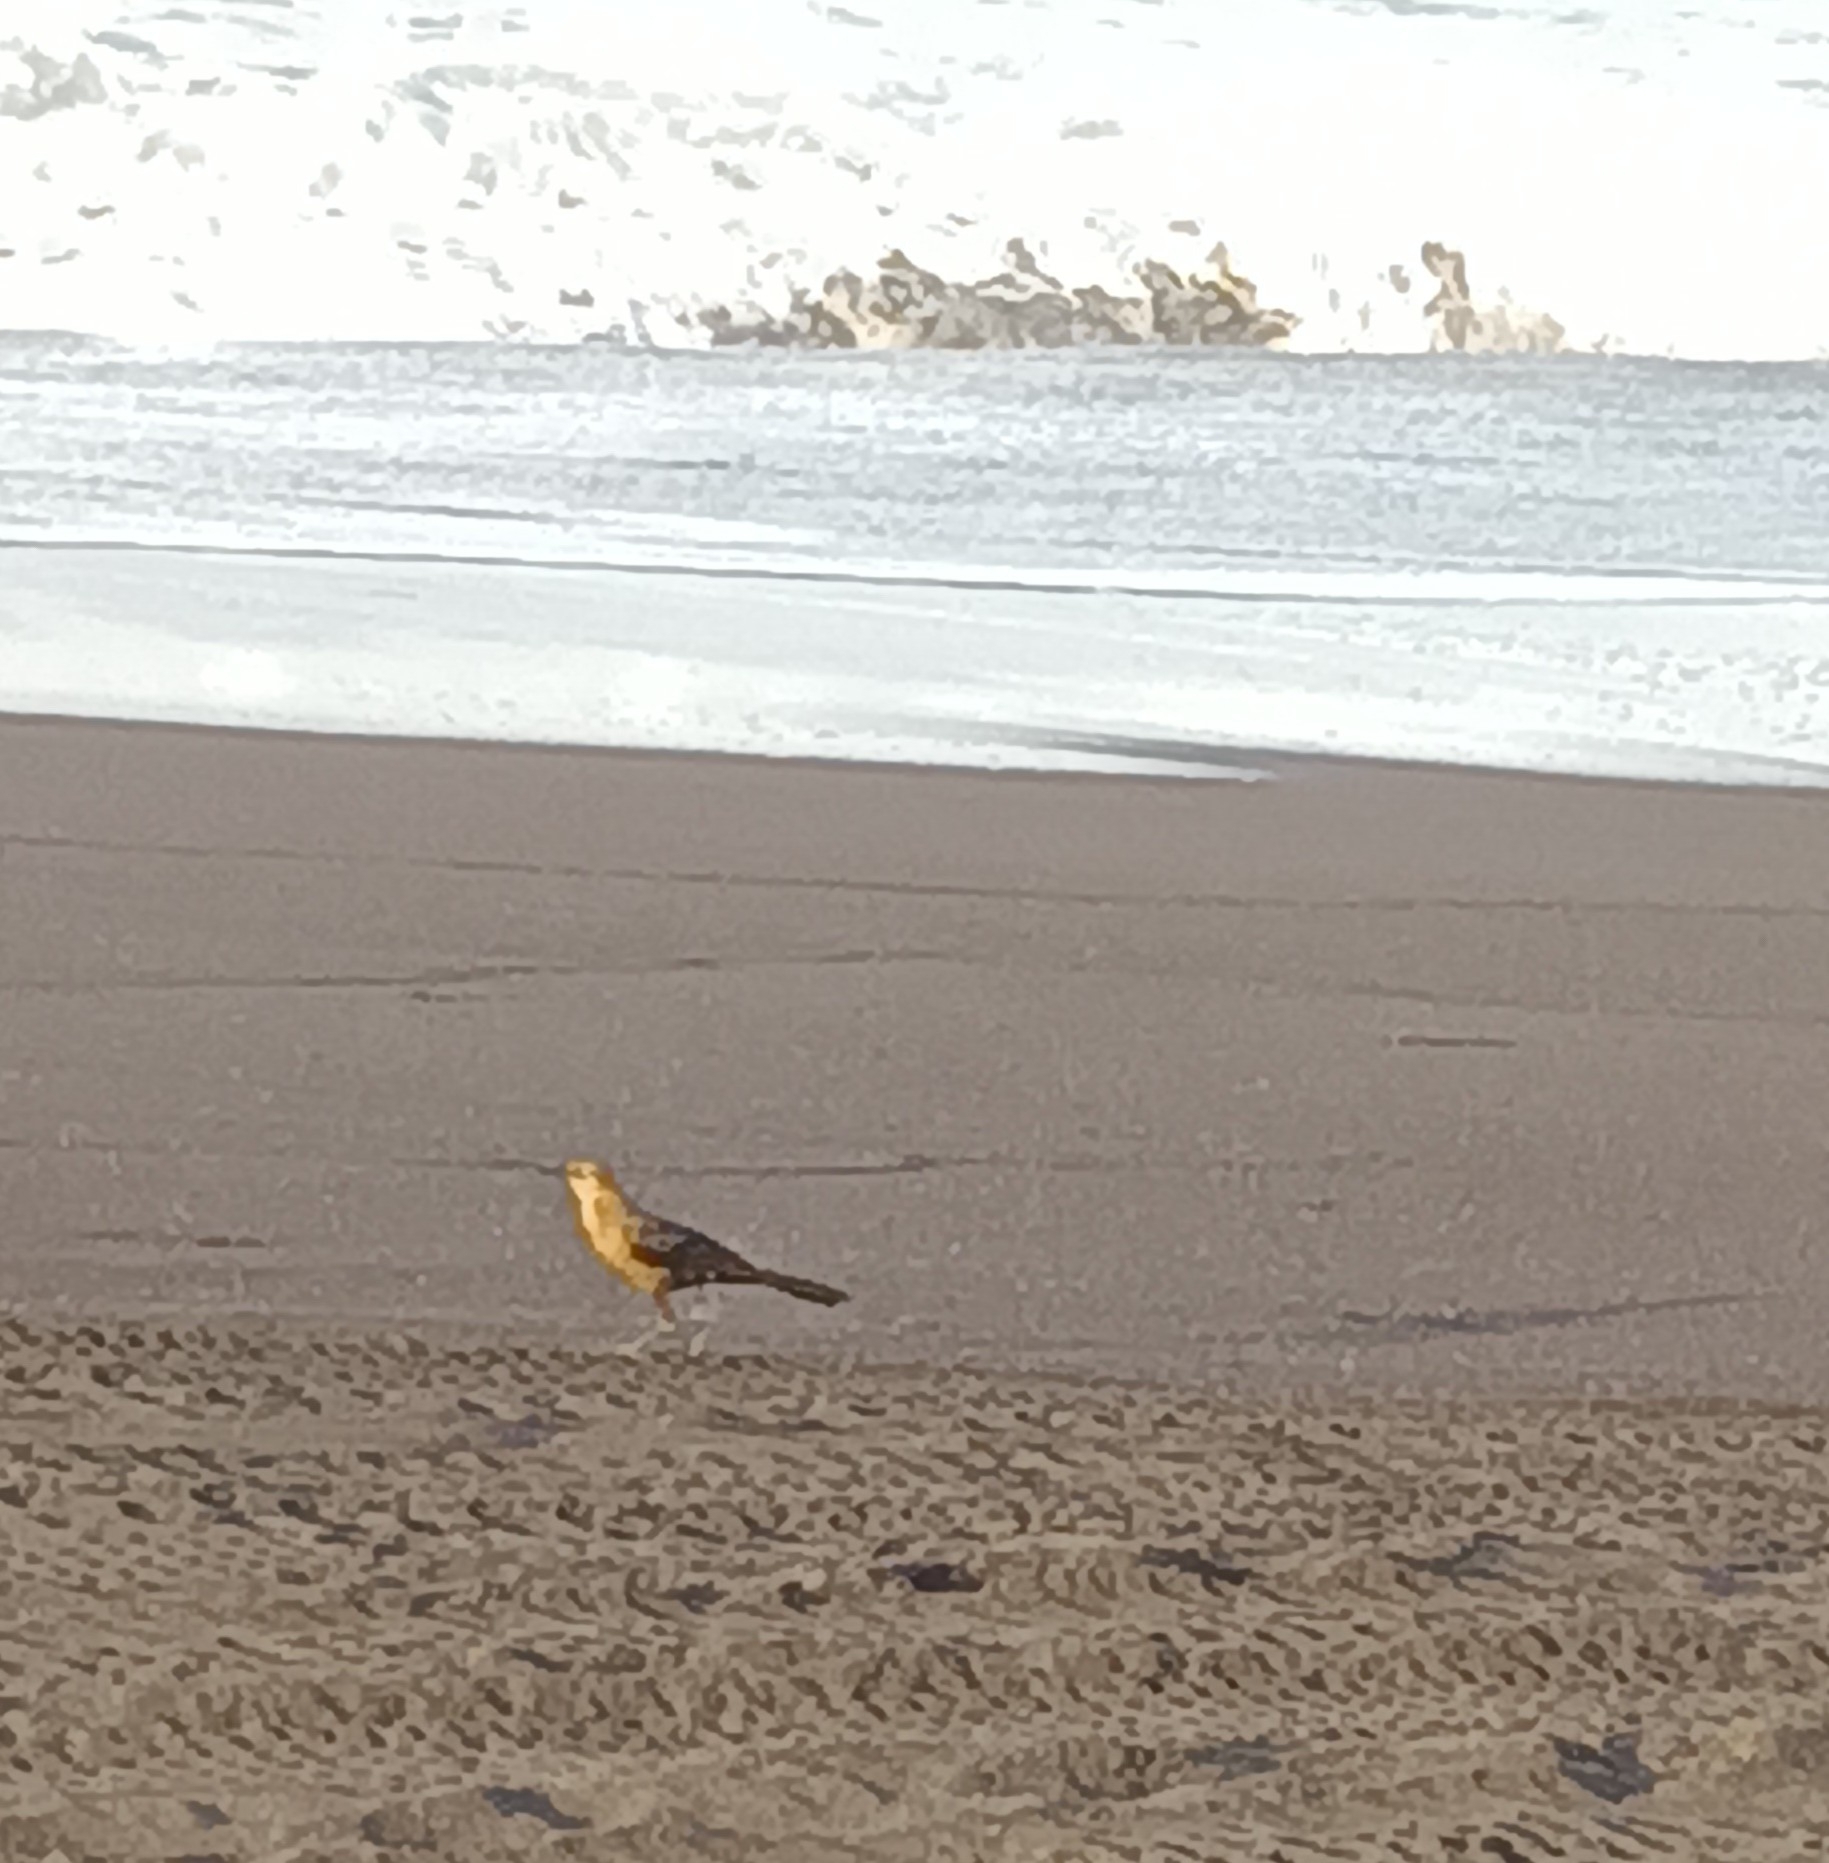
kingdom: Animalia
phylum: Chordata
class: Aves
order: Passeriformes
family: Icteridae
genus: Quiscalus
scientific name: Quiscalus mexicanus
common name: Great-tailed grackle
